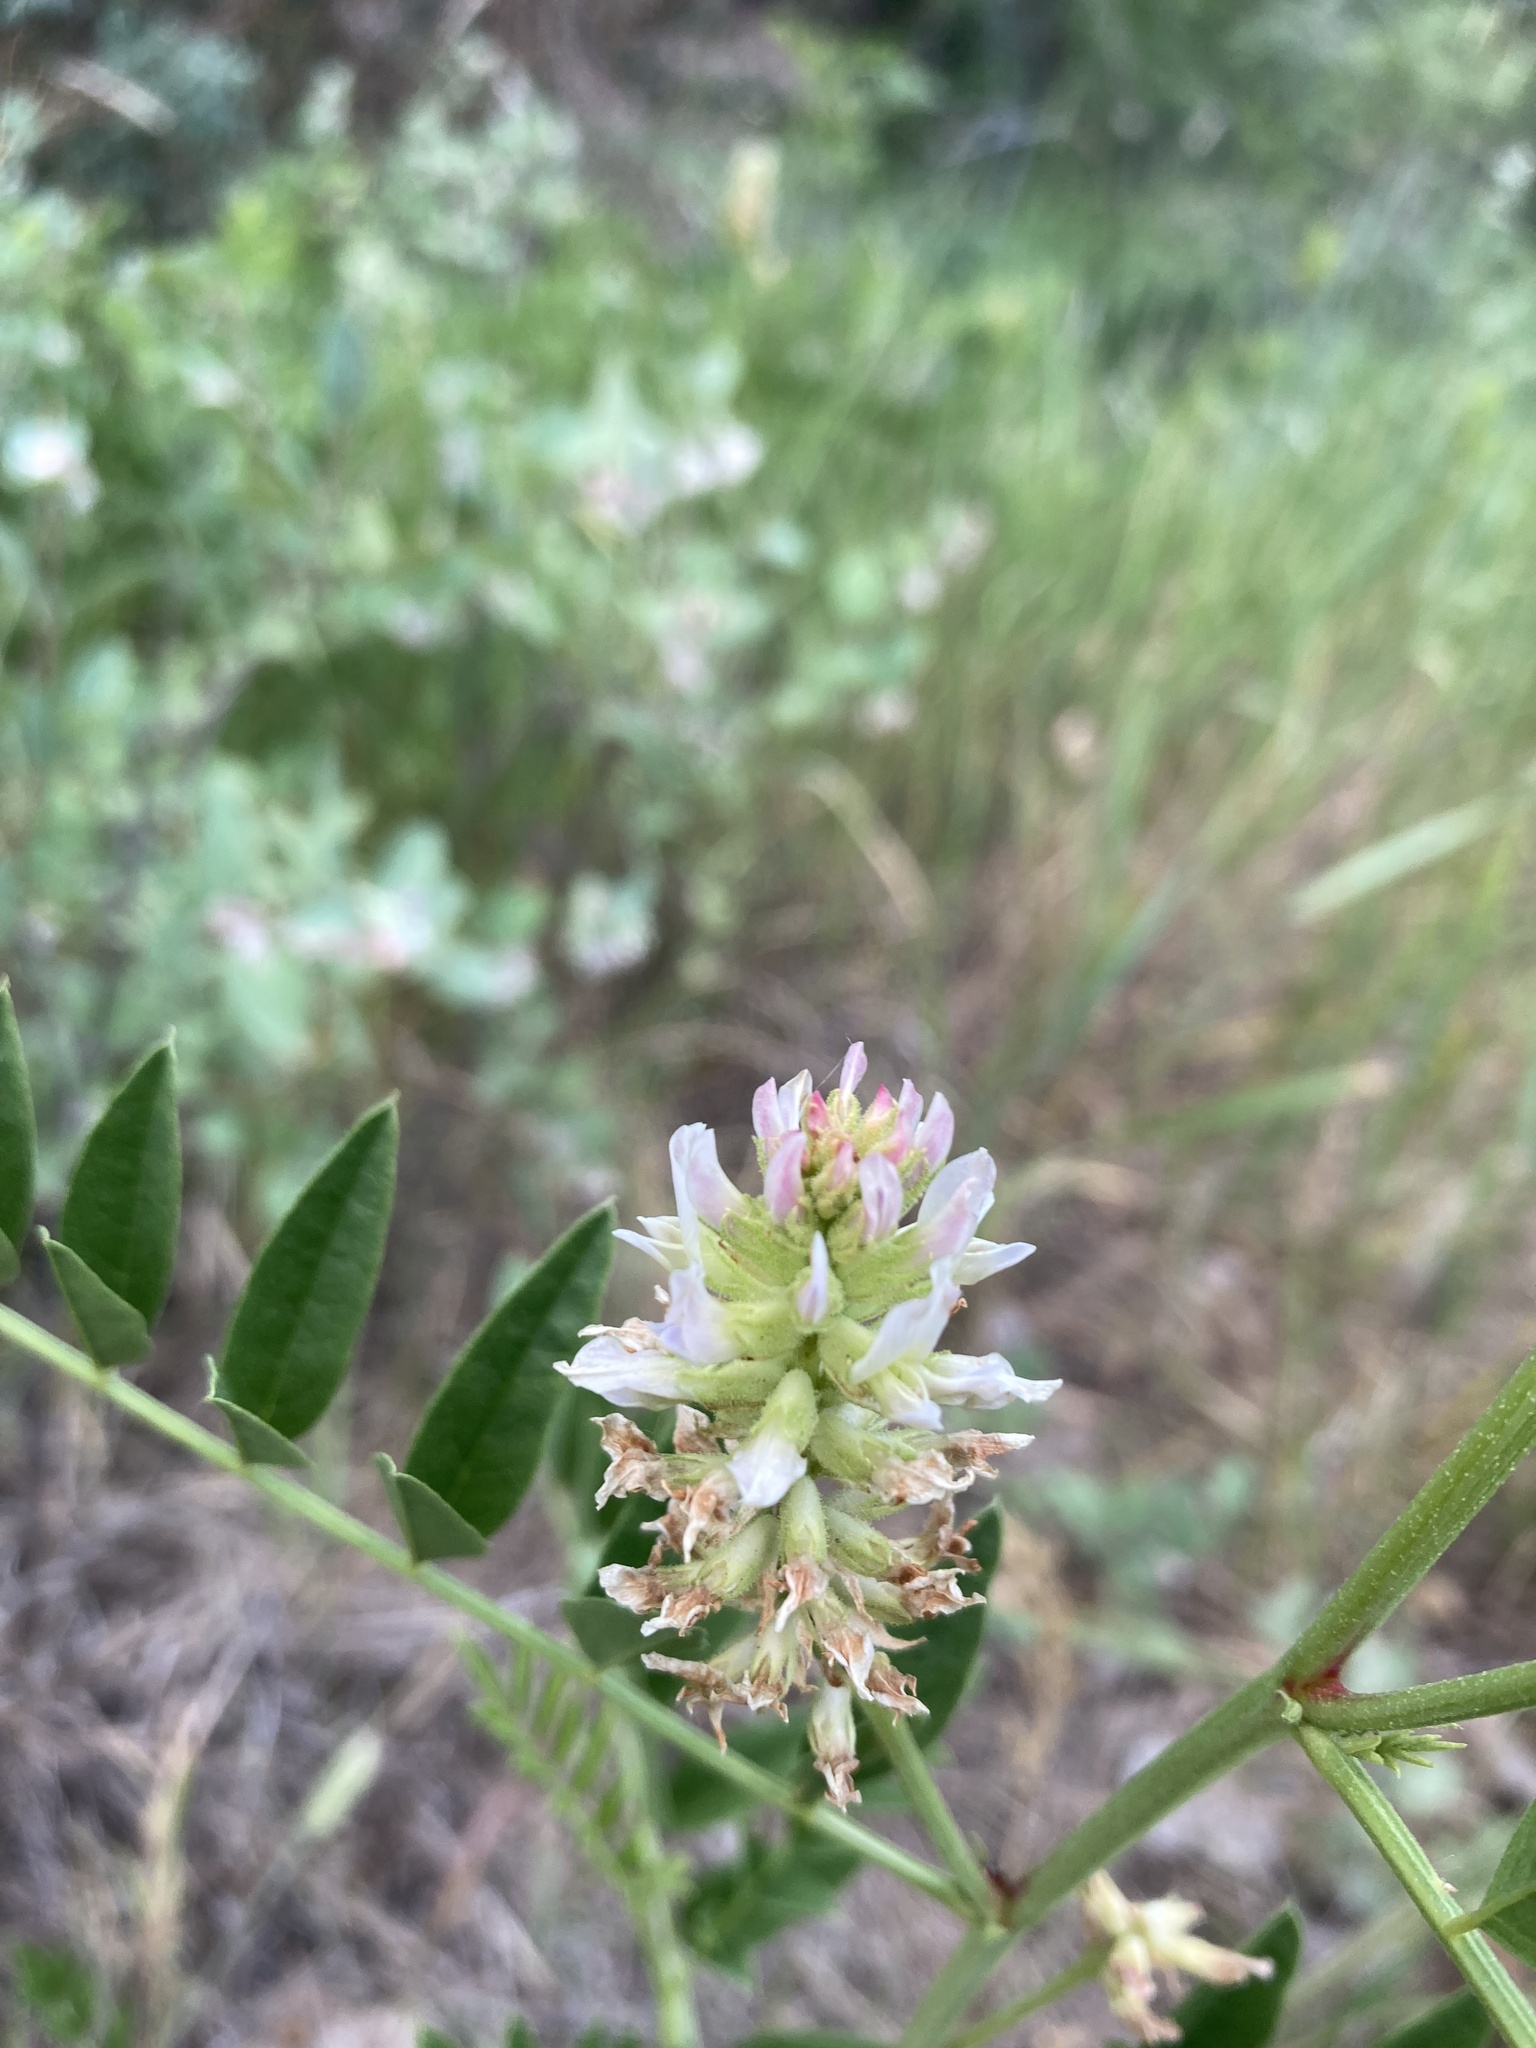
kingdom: Plantae
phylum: Tracheophyta
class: Magnoliopsida
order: Fabales
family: Fabaceae
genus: Glycyrrhiza
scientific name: Glycyrrhiza lepidota
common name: American liquorice
